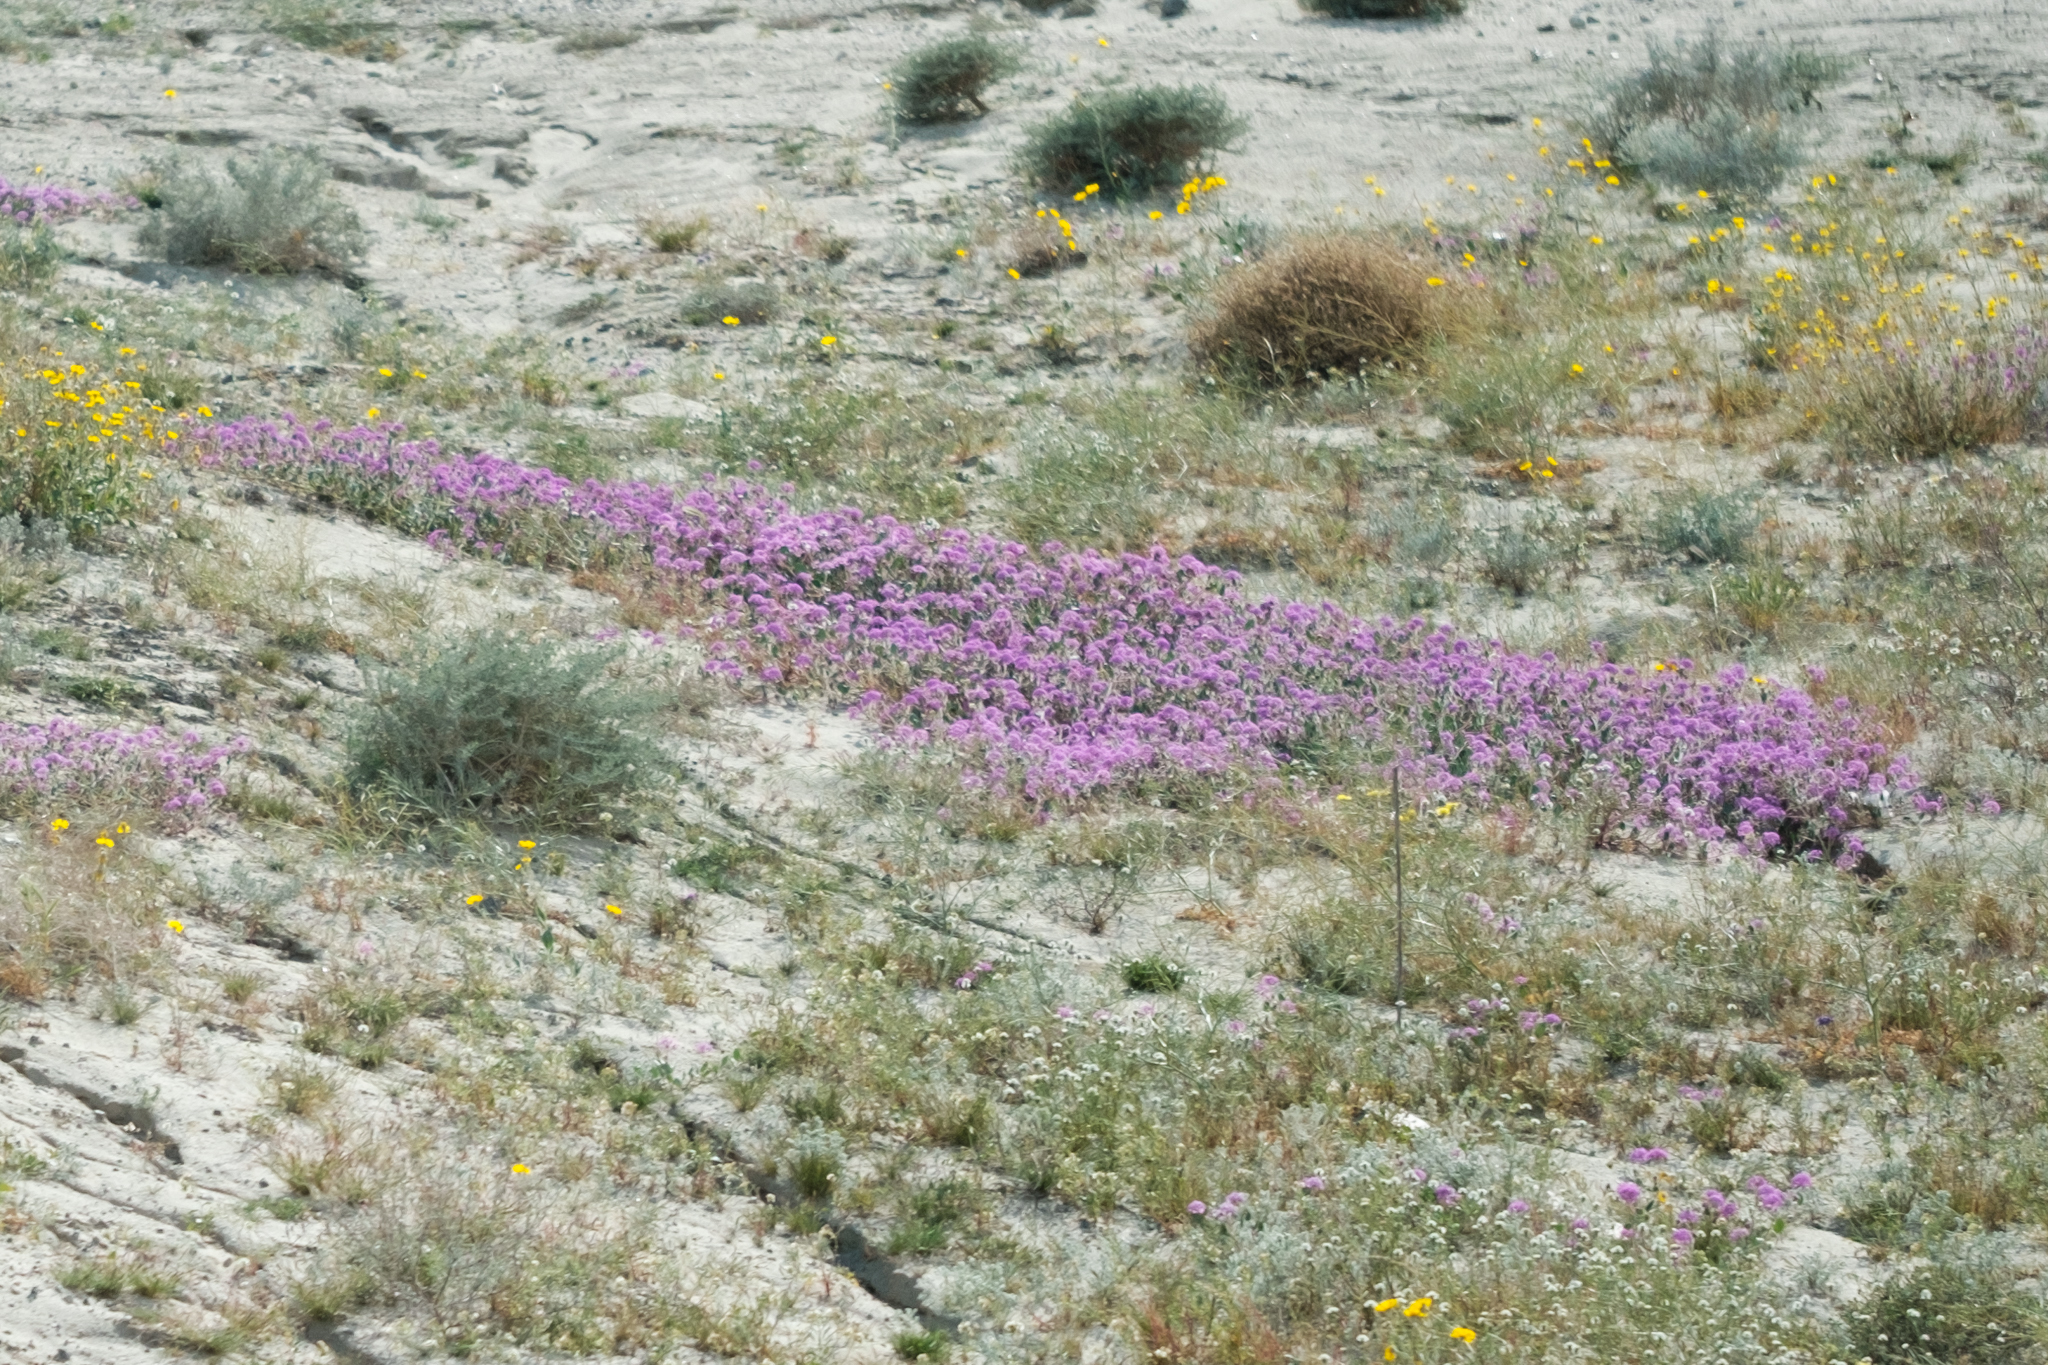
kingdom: Plantae
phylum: Tracheophyta
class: Magnoliopsida
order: Caryophyllales
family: Nyctaginaceae
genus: Abronia
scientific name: Abronia villosa
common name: Desert sand-verbena
